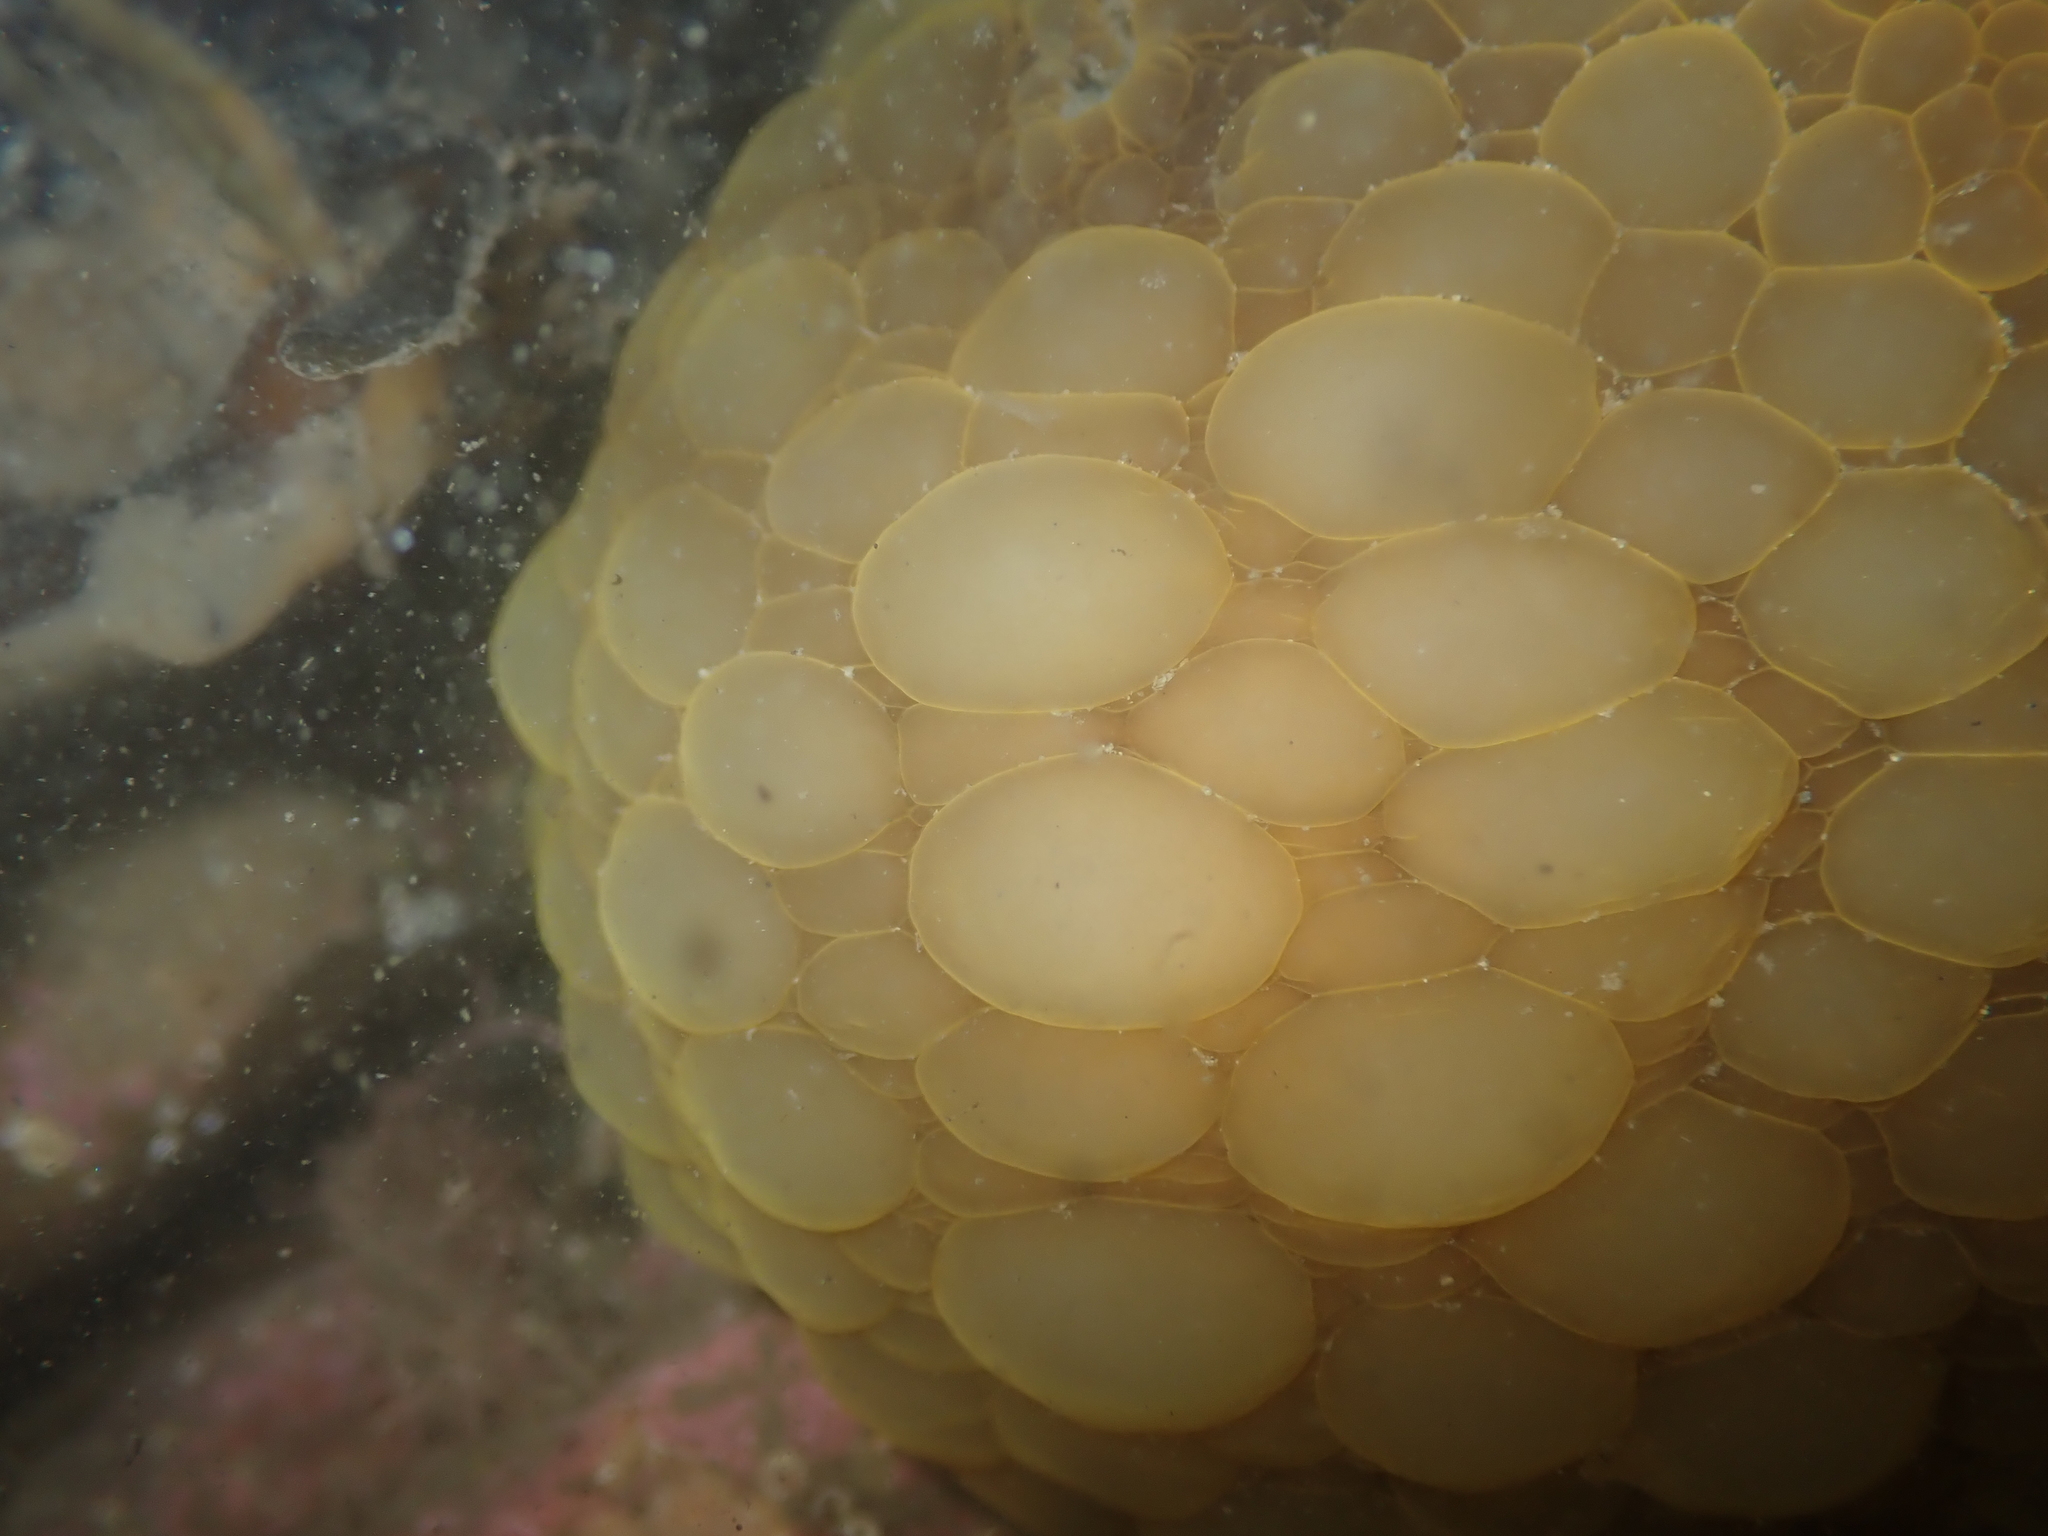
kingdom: Animalia
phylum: Mollusca
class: Gastropoda
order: Nudibranchia
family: Dorididae
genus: Doris
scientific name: Doris wellingtonensis
